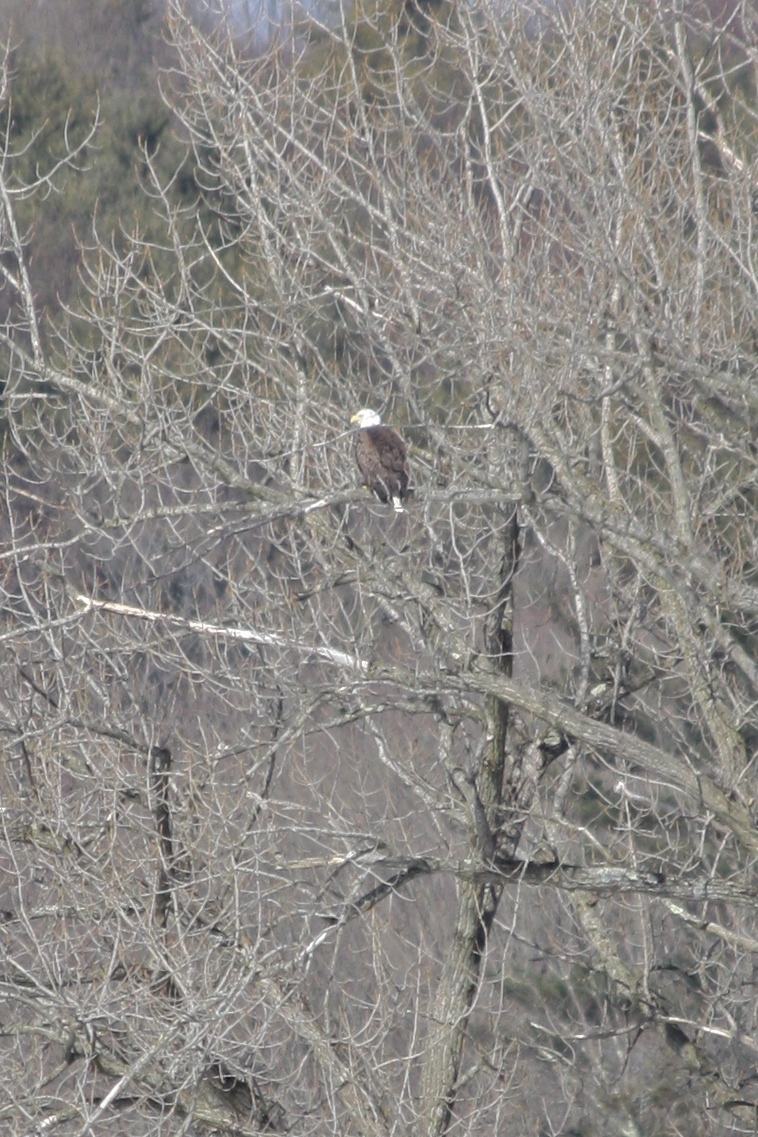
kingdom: Animalia
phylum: Chordata
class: Aves
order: Accipitriformes
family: Accipitridae
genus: Haliaeetus
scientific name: Haliaeetus leucocephalus
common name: Bald eagle
